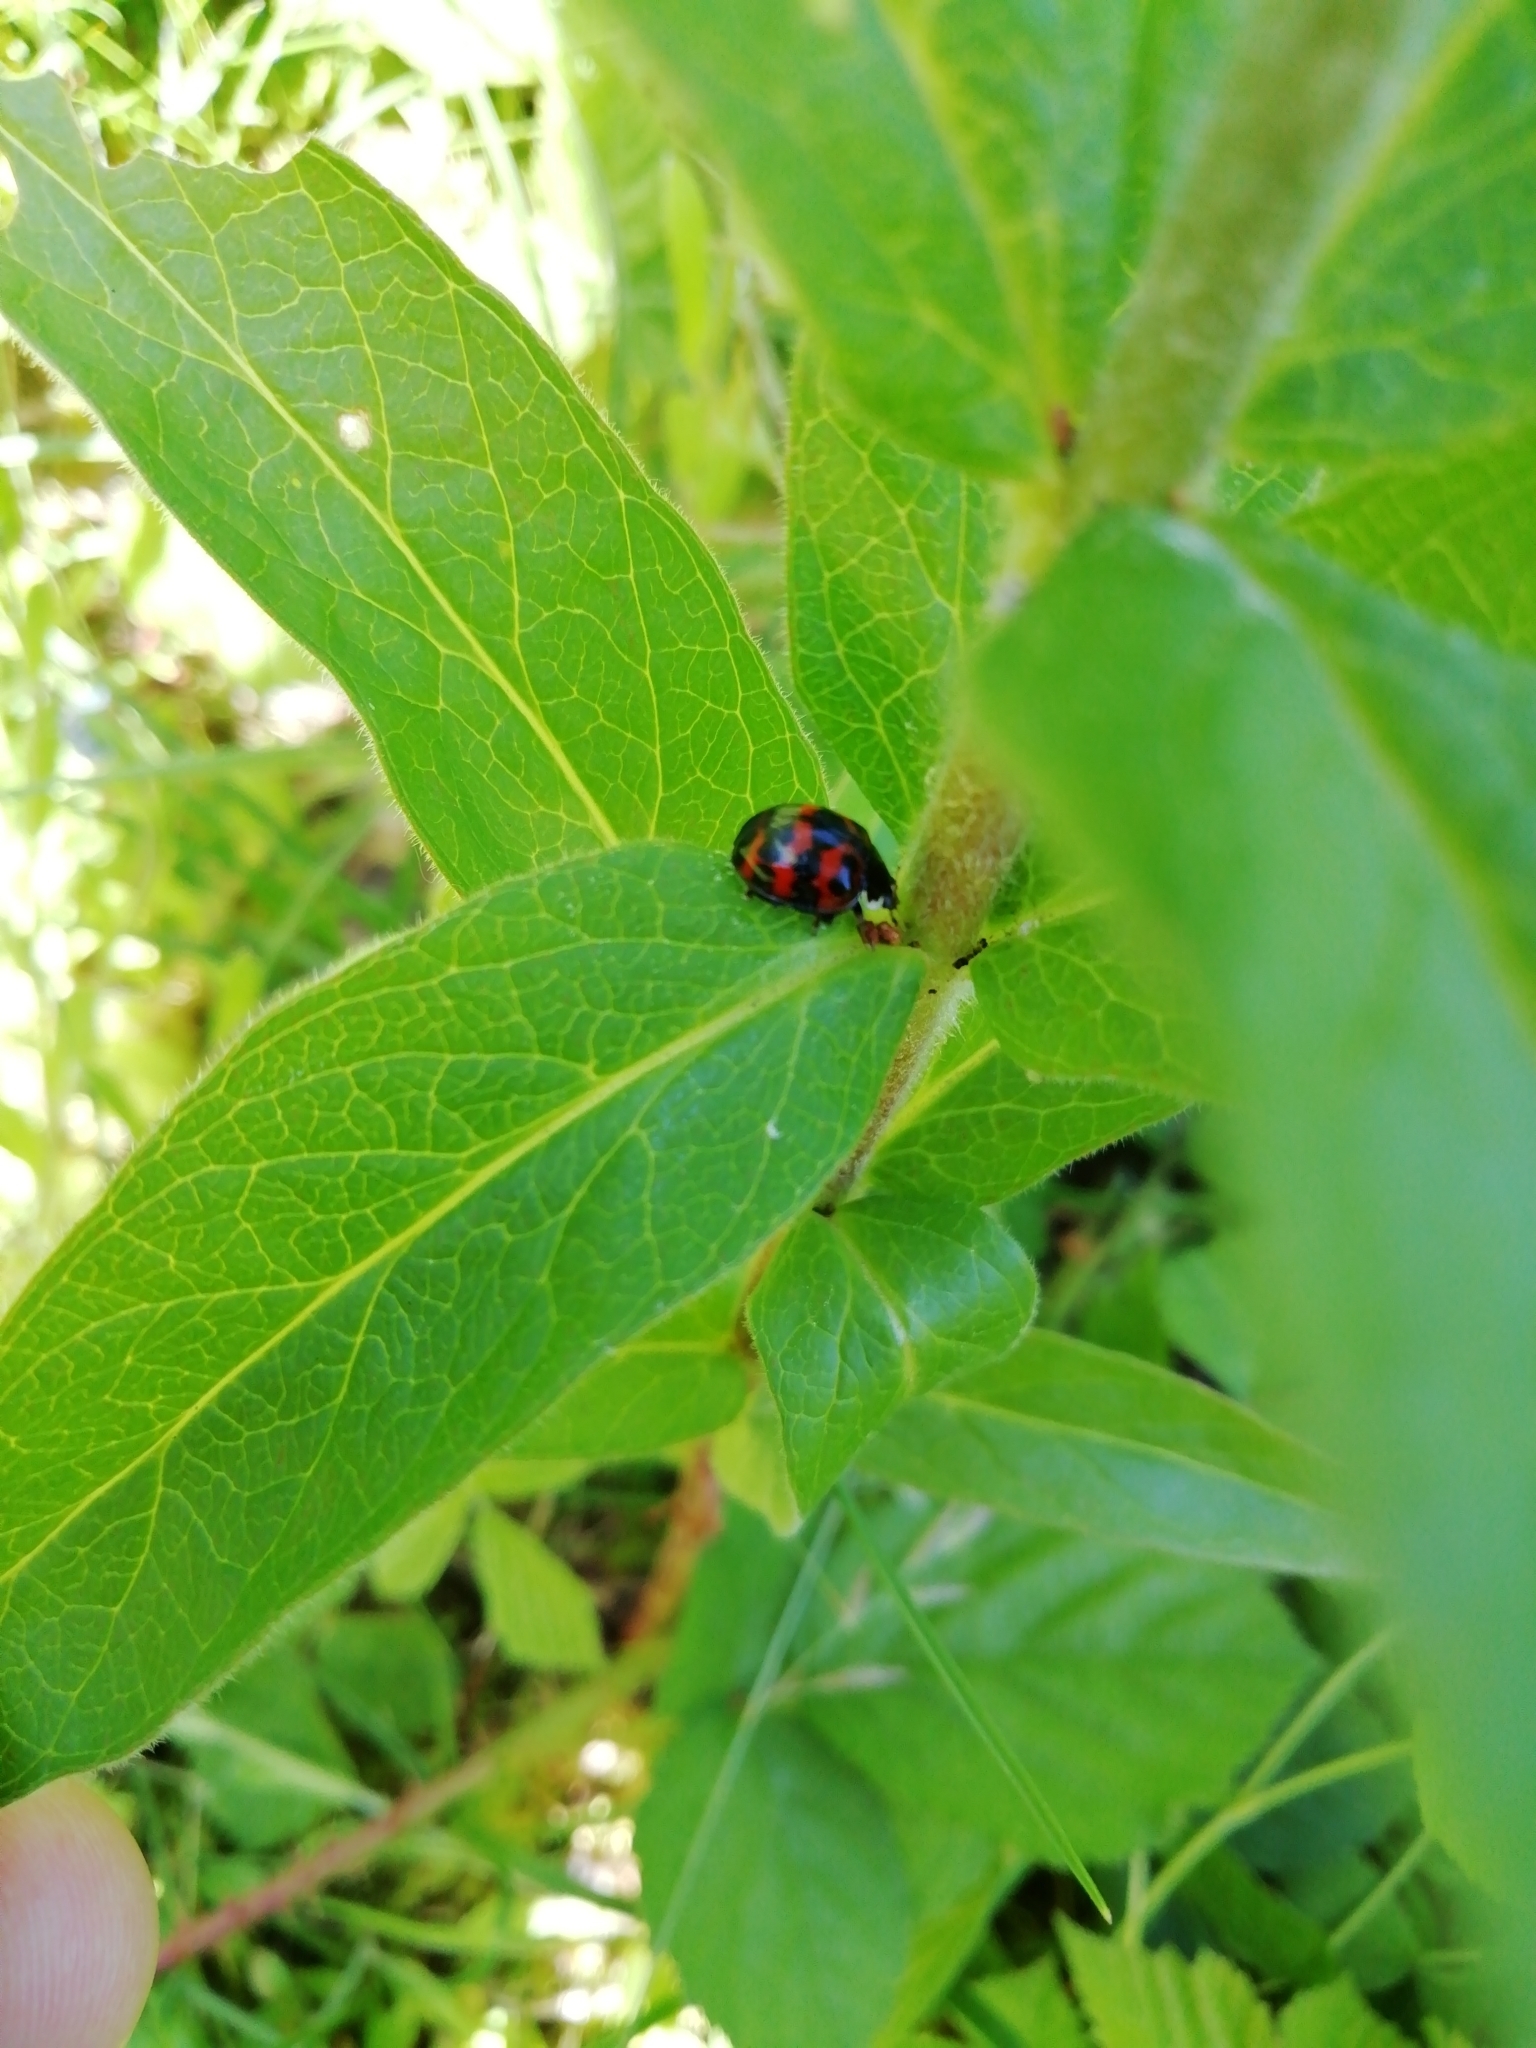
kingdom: Animalia
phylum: Arthropoda
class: Insecta
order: Coleoptera
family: Coccinellidae
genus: Harmonia
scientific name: Harmonia axyridis
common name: Harlequin ladybird
